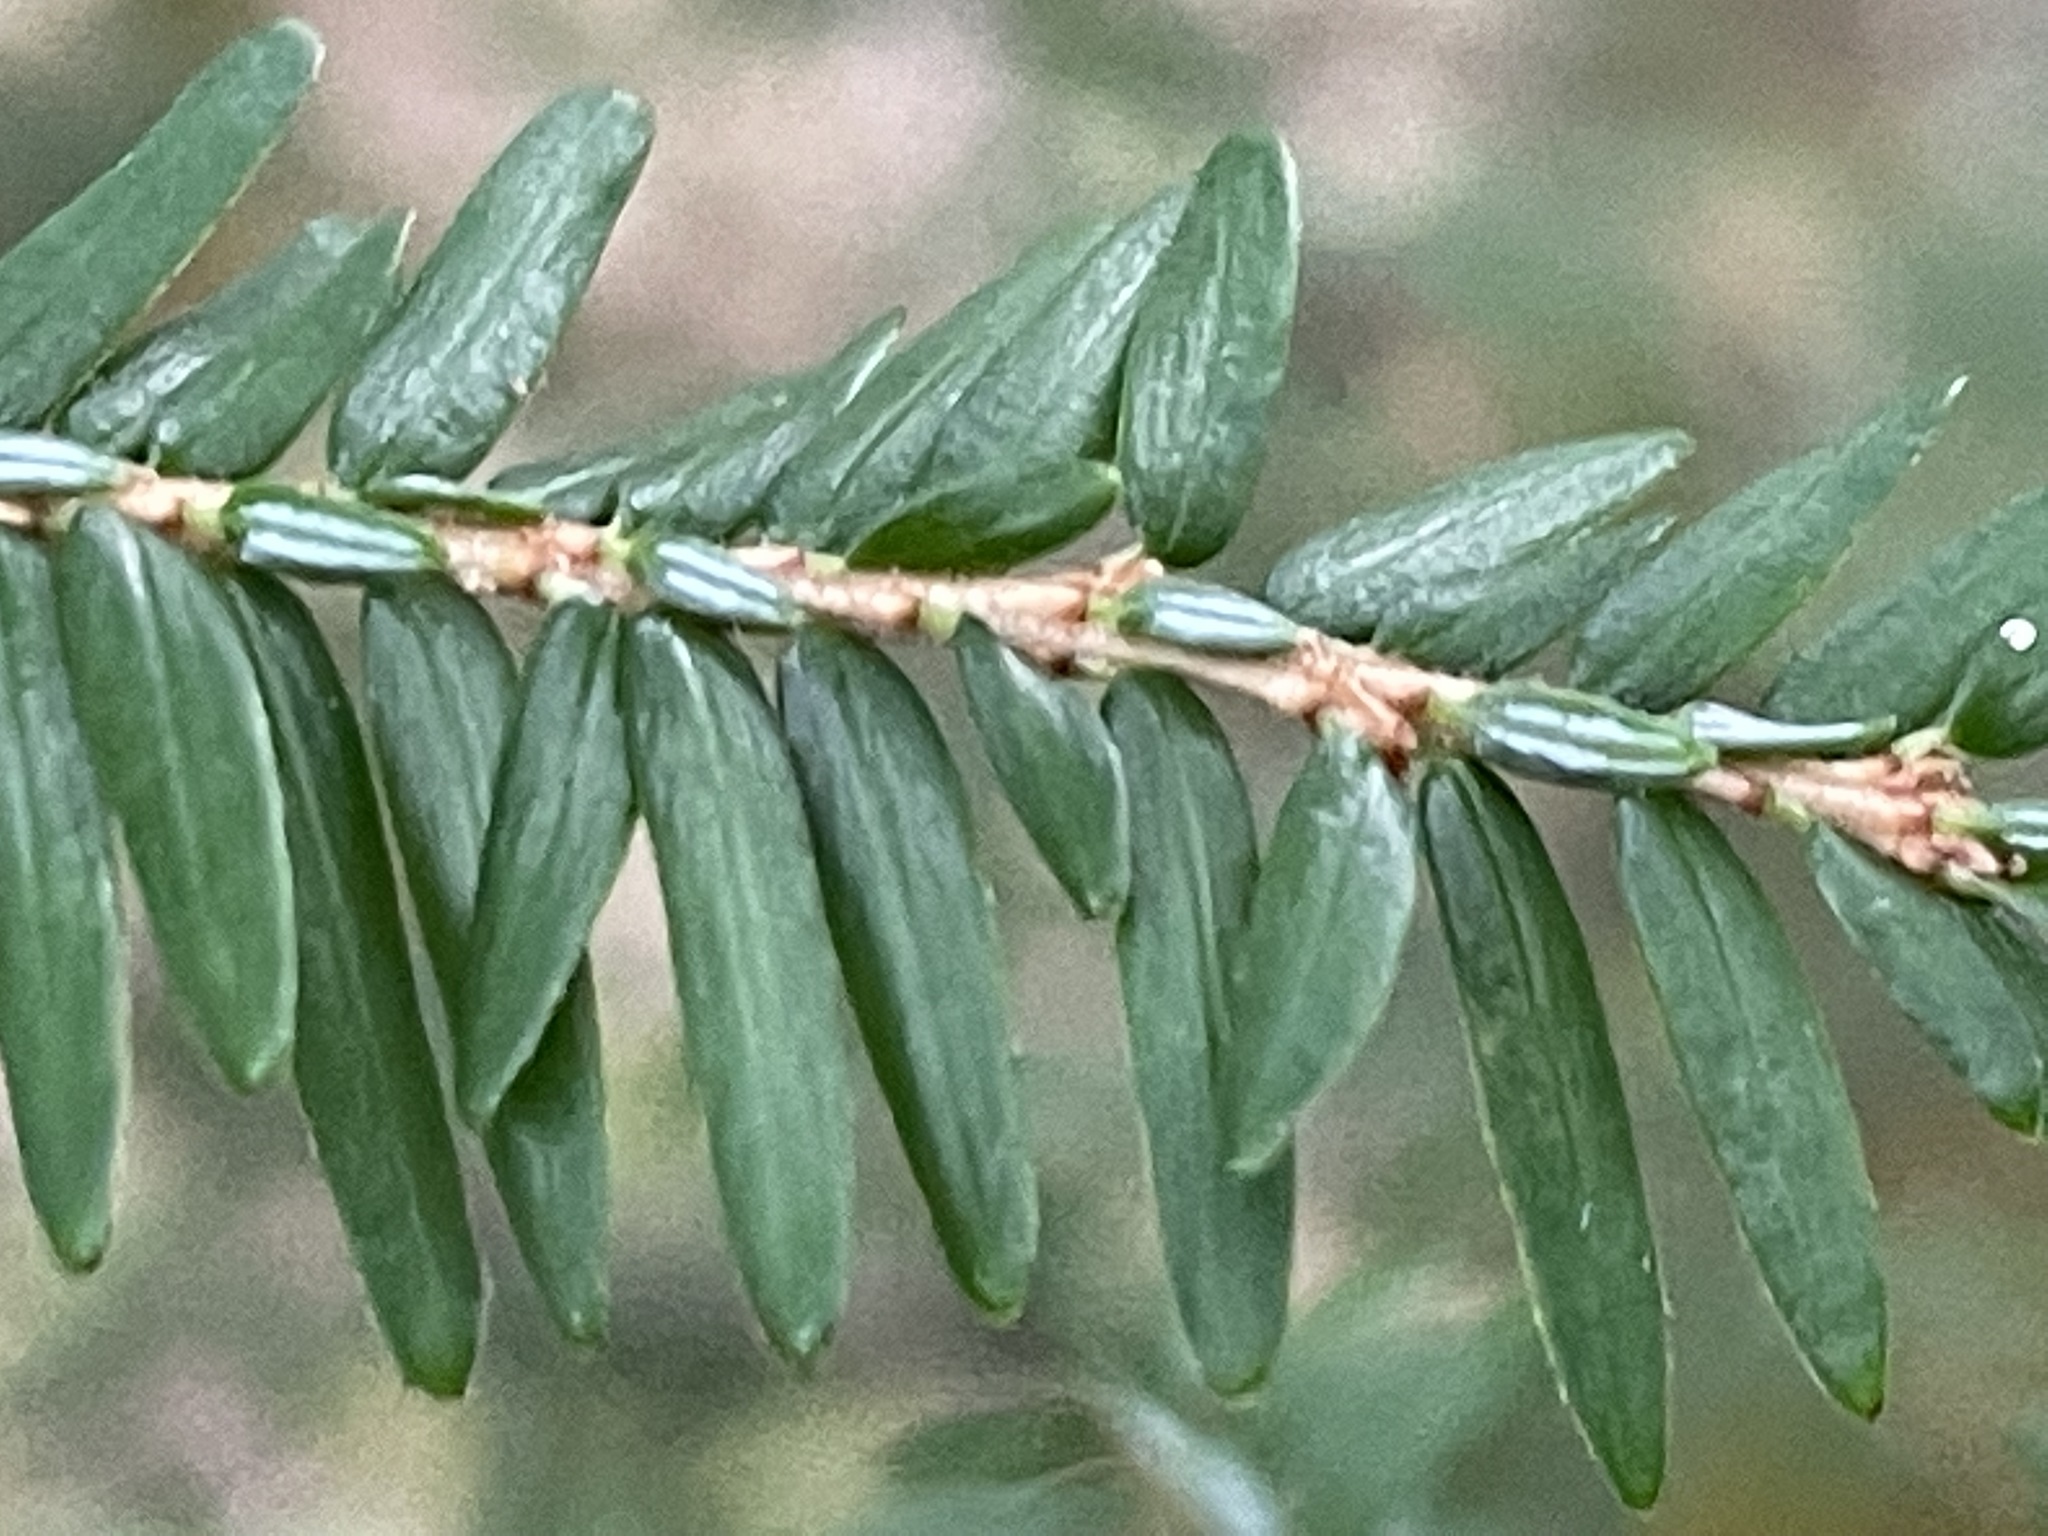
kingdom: Plantae
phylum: Tracheophyta
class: Pinopsida
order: Pinales
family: Pinaceae
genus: Tsuga
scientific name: Tsuga canadensis
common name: Eastern hemlock
